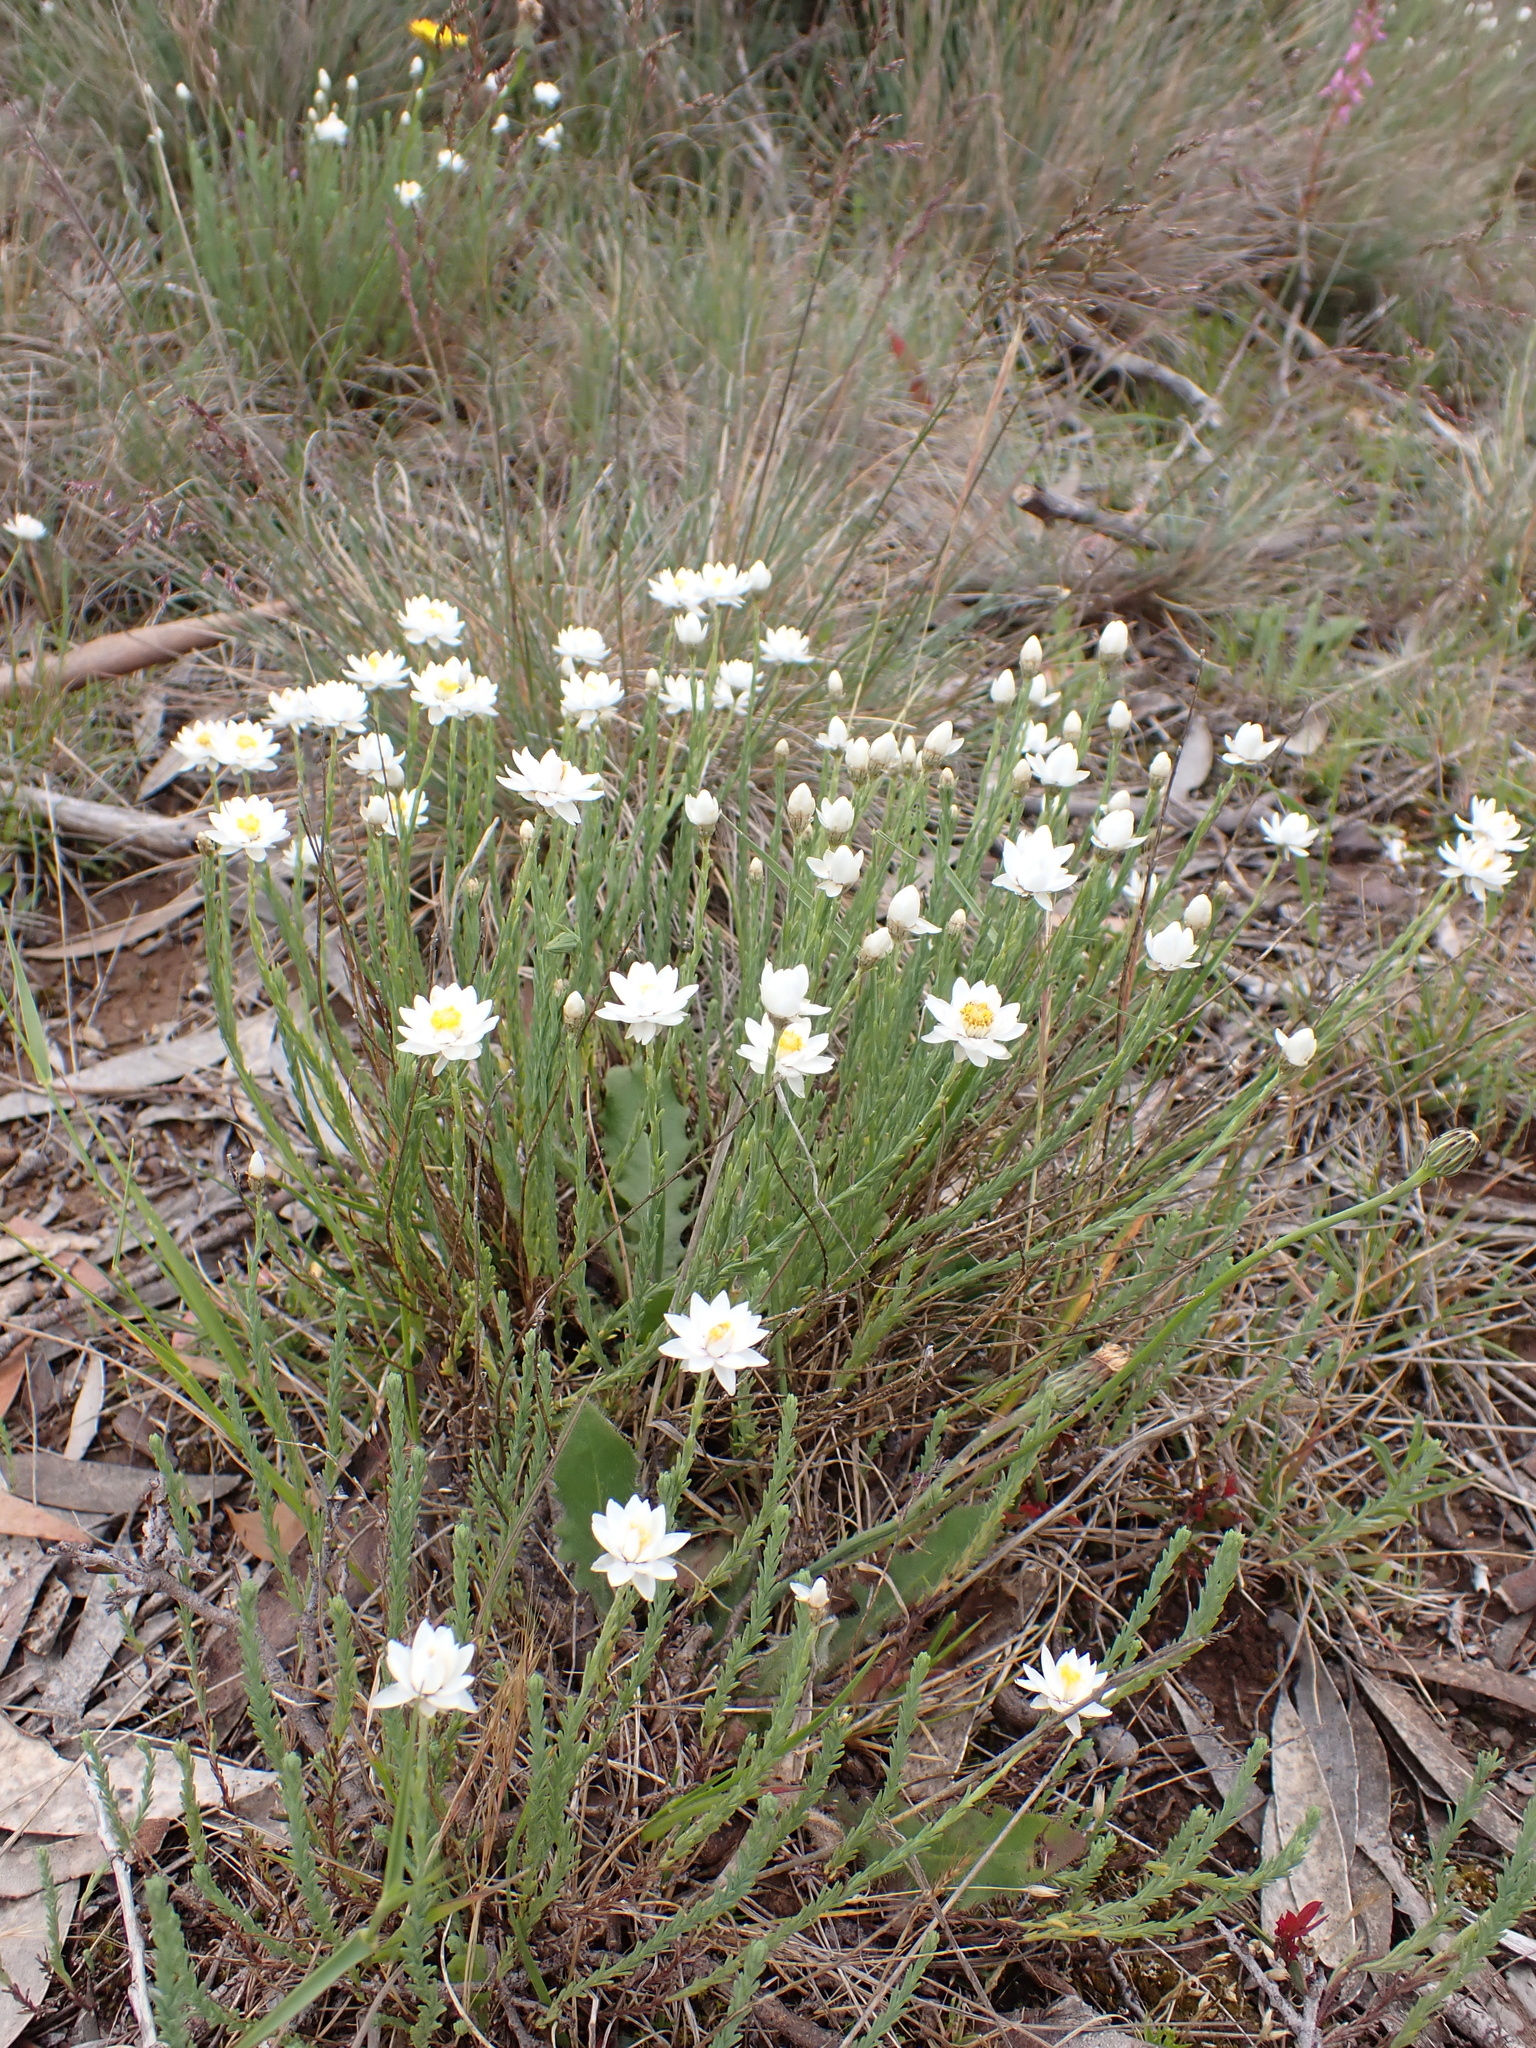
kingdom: Plantae
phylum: Tracheophyta
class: Magnoliopsida
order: Asterales
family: Asteraceae
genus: Rhodanthe
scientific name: Rhodanthe anthemoides
